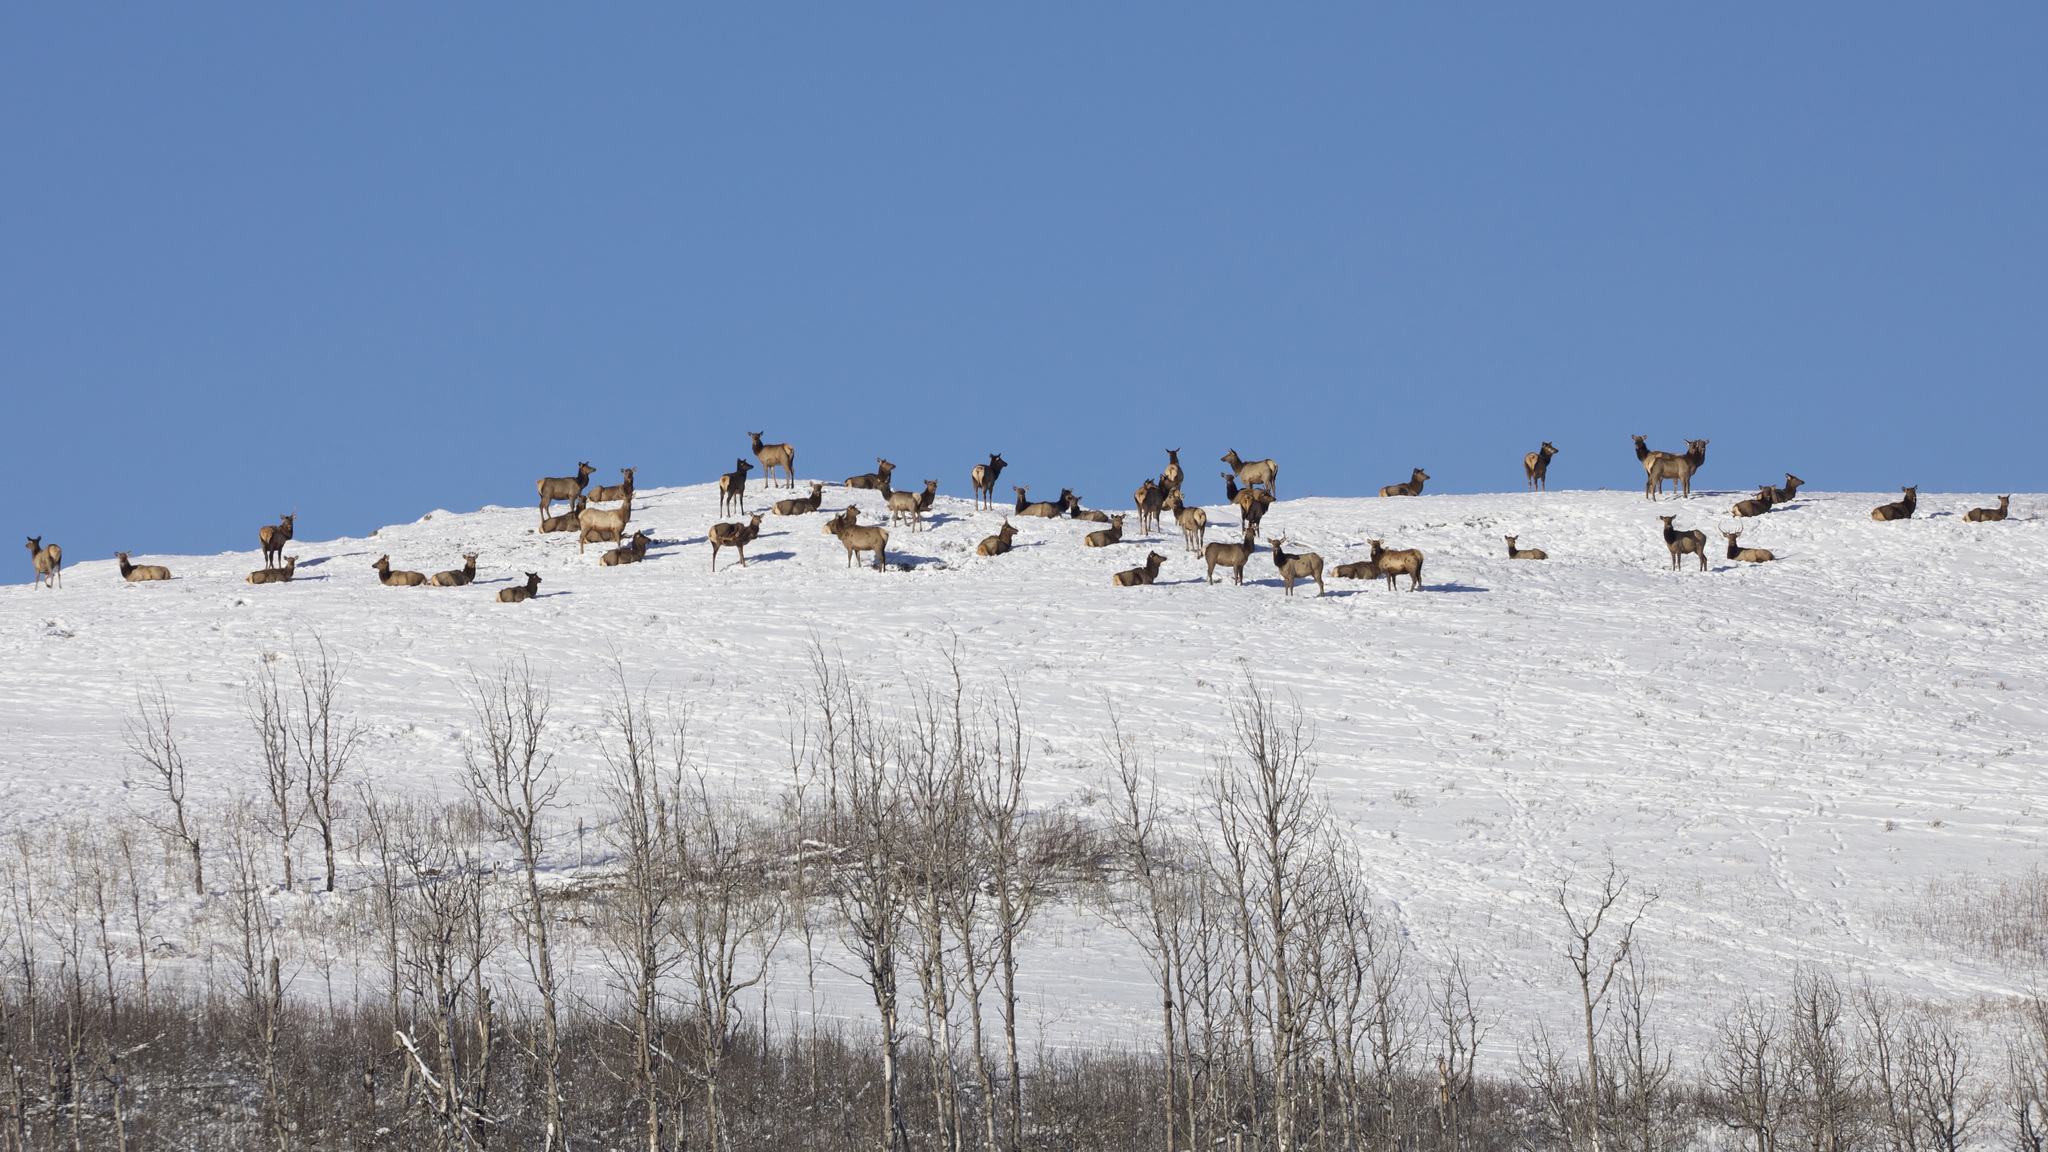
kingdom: Animalia
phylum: Chordata
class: Mammalia
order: Artiodactyla
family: Cervidae
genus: Cervus
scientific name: Cervus elaphus
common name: Red deer
